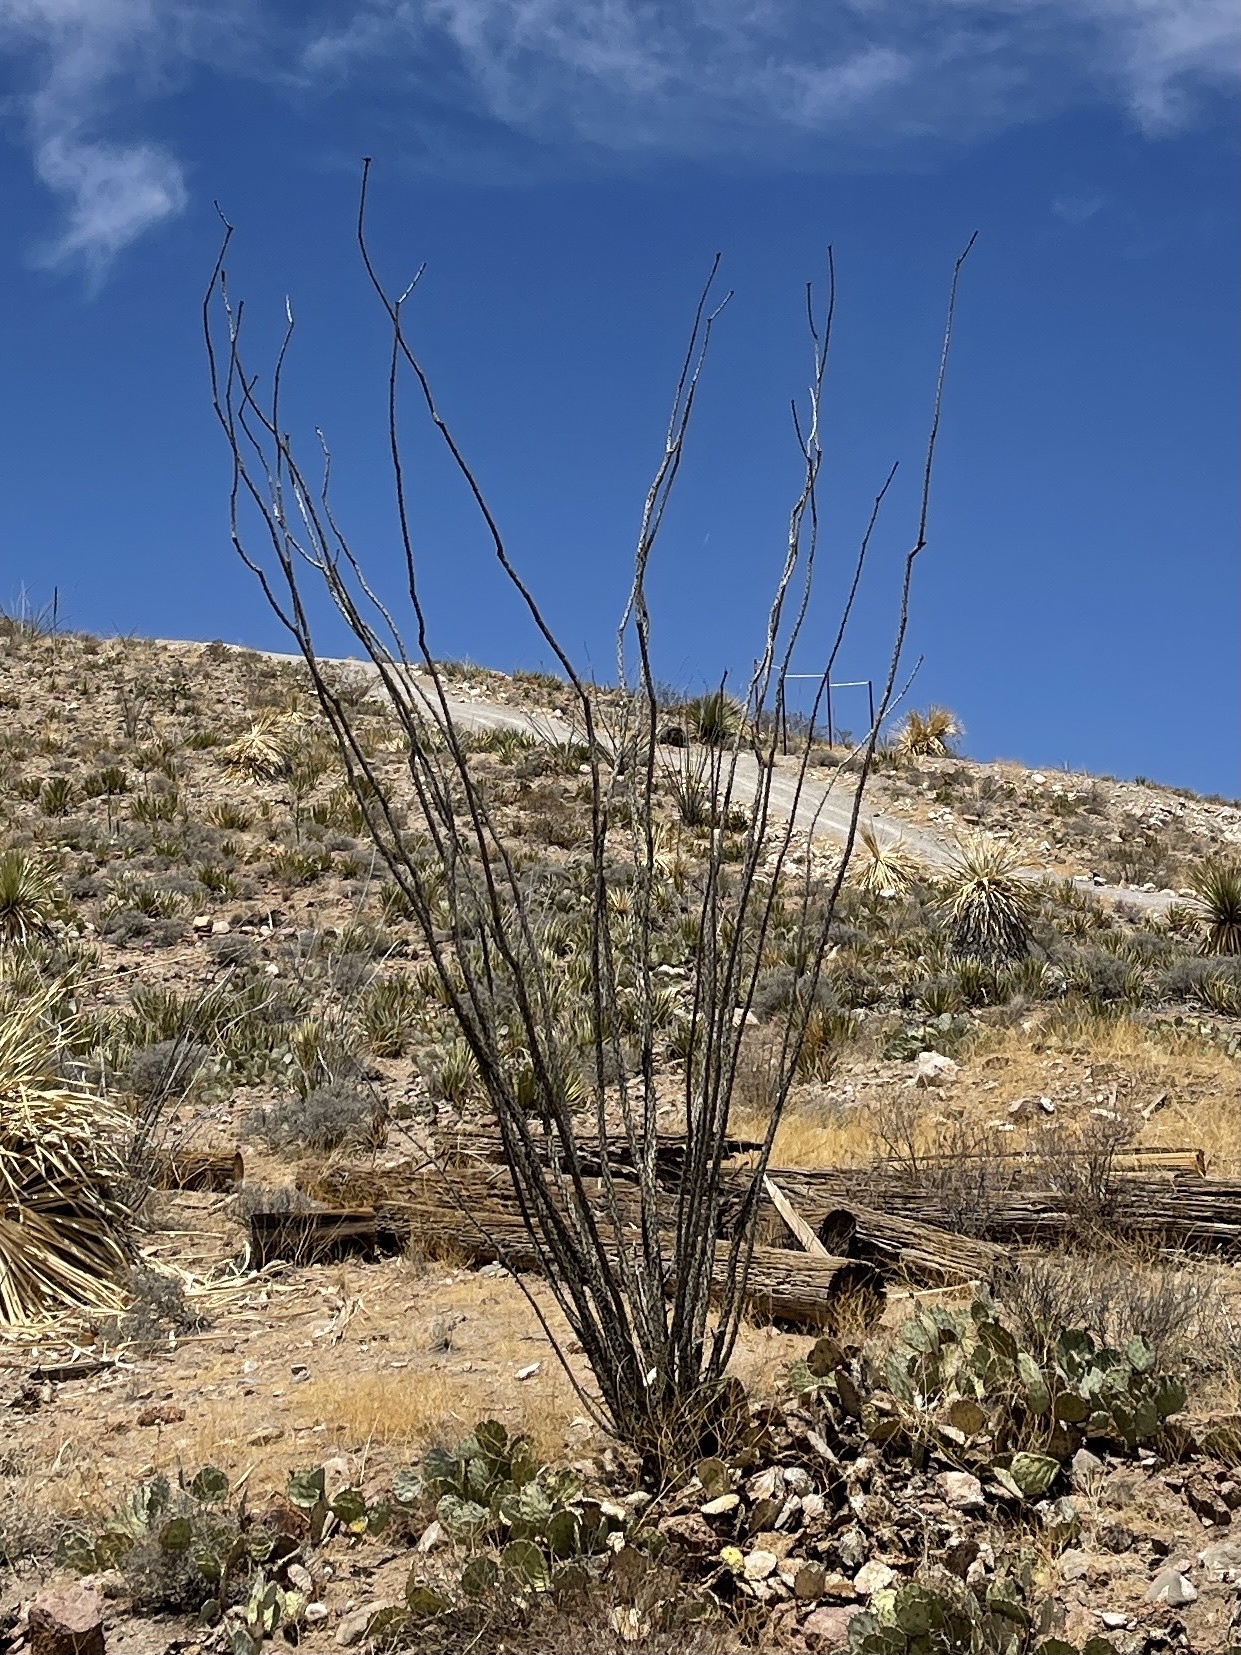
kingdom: Plantae
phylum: Tracheophyta
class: Magnoliopsida
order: Ericales
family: Fouquieriaceae
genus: Fouquieria
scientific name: Fouquieria splendens
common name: Vine-cactus
